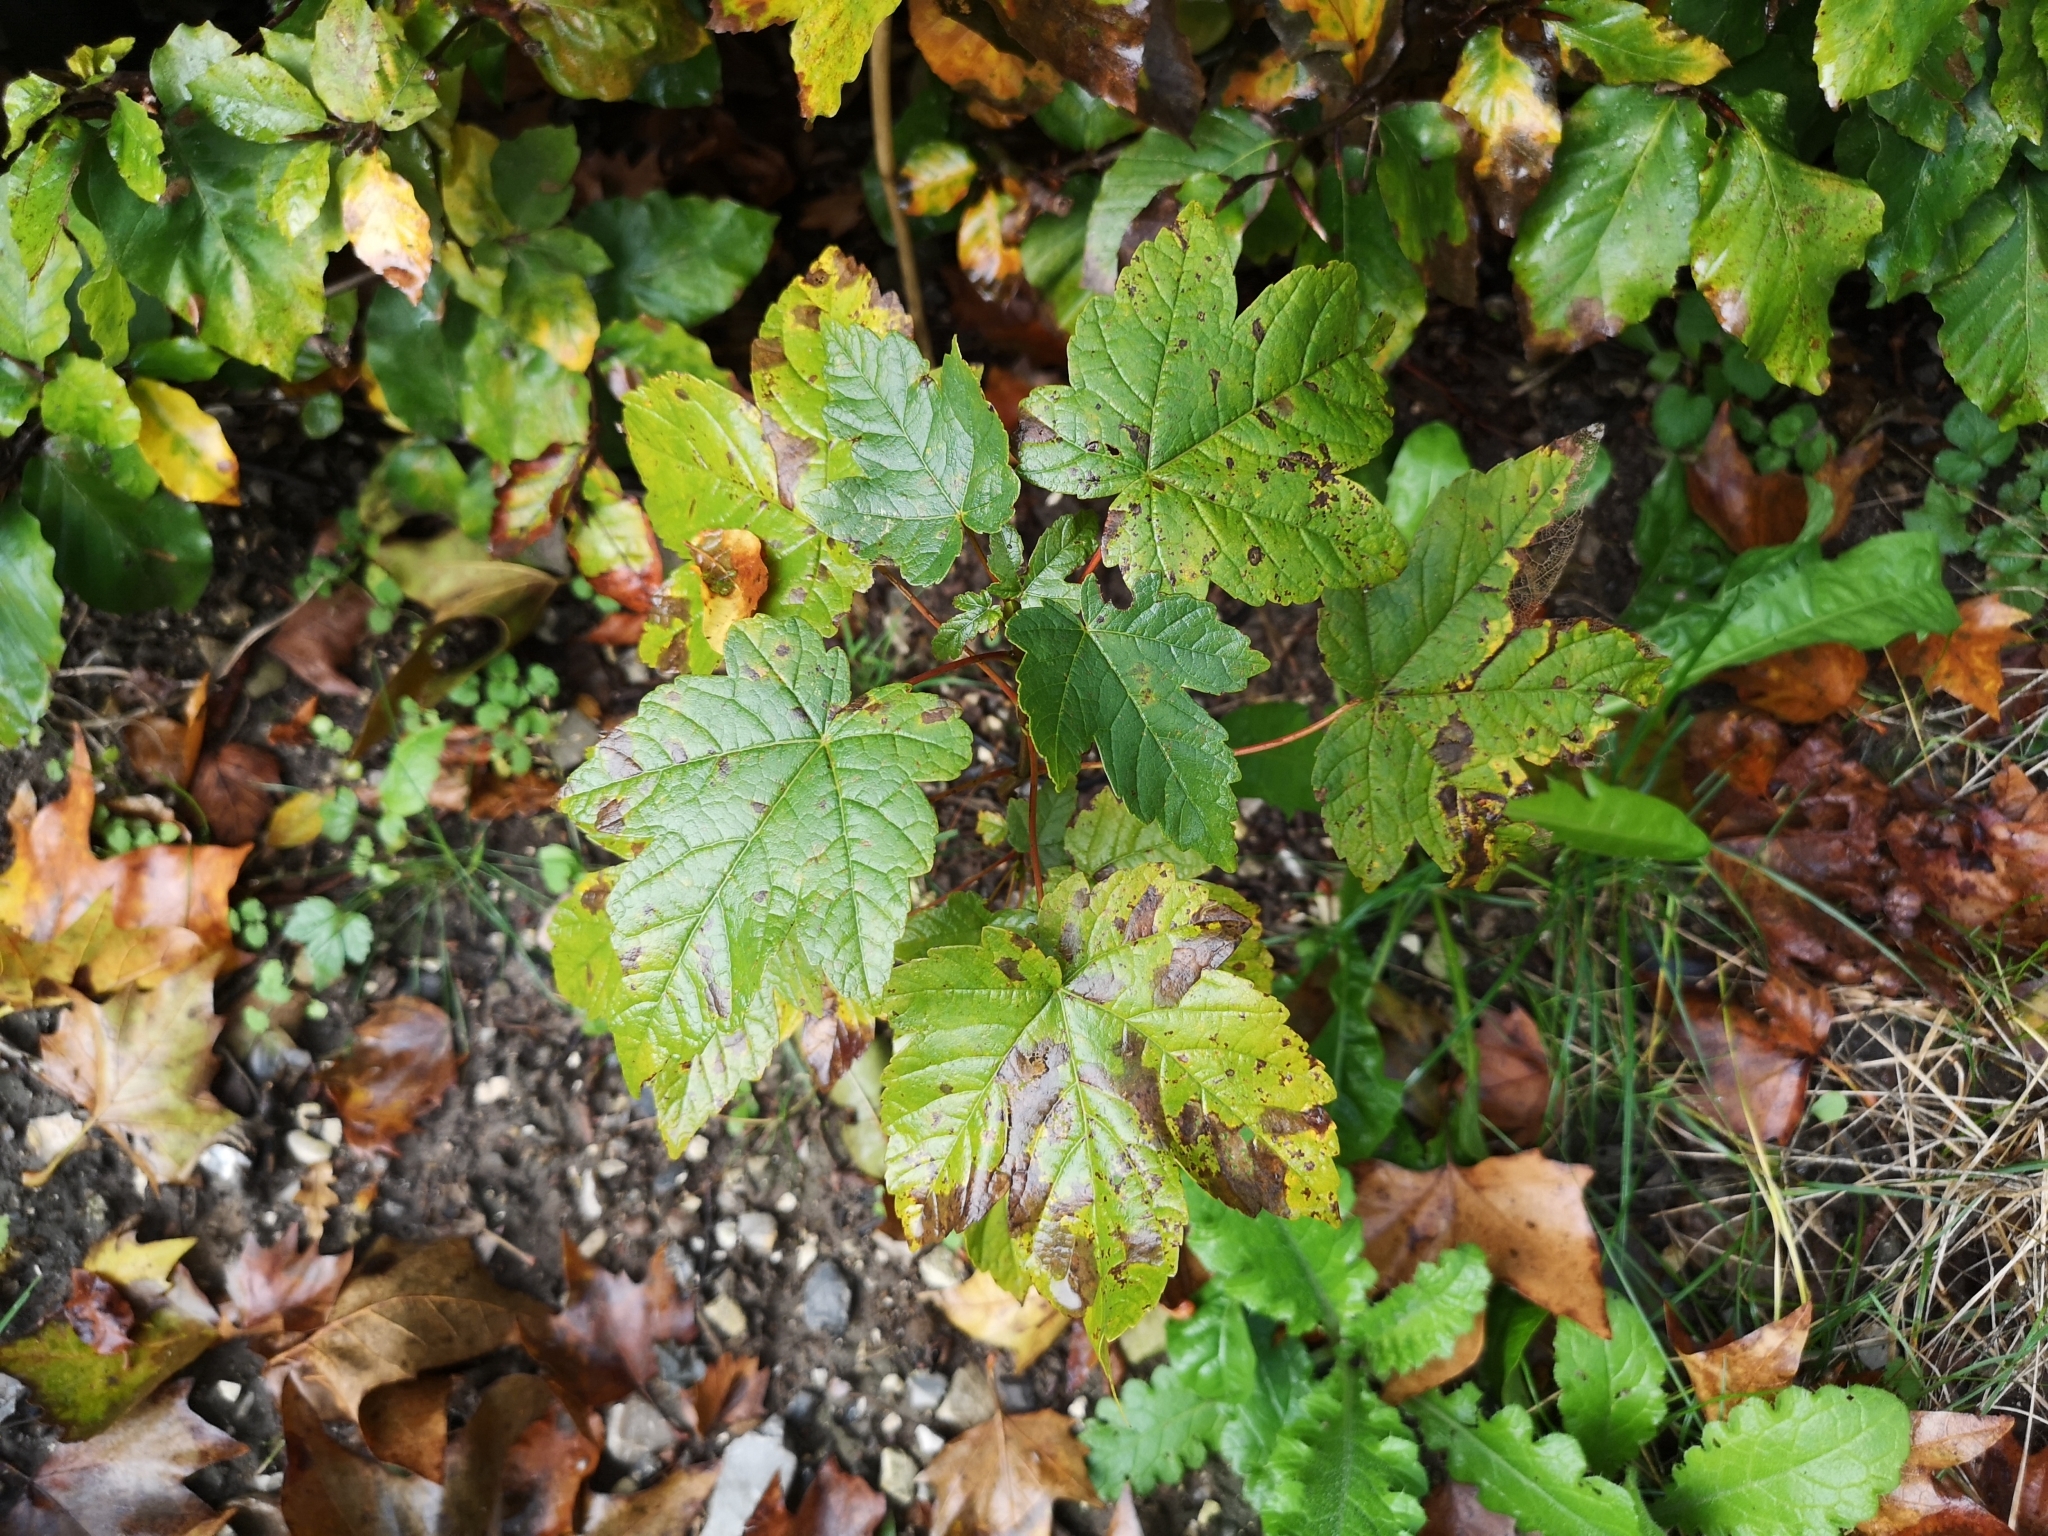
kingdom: Plantae
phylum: Tracheophyta
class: Magnoliopsida
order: Sapindales
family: Sapindaceae
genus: Acer
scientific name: Acer pseudoplatanus
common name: Sycamore
